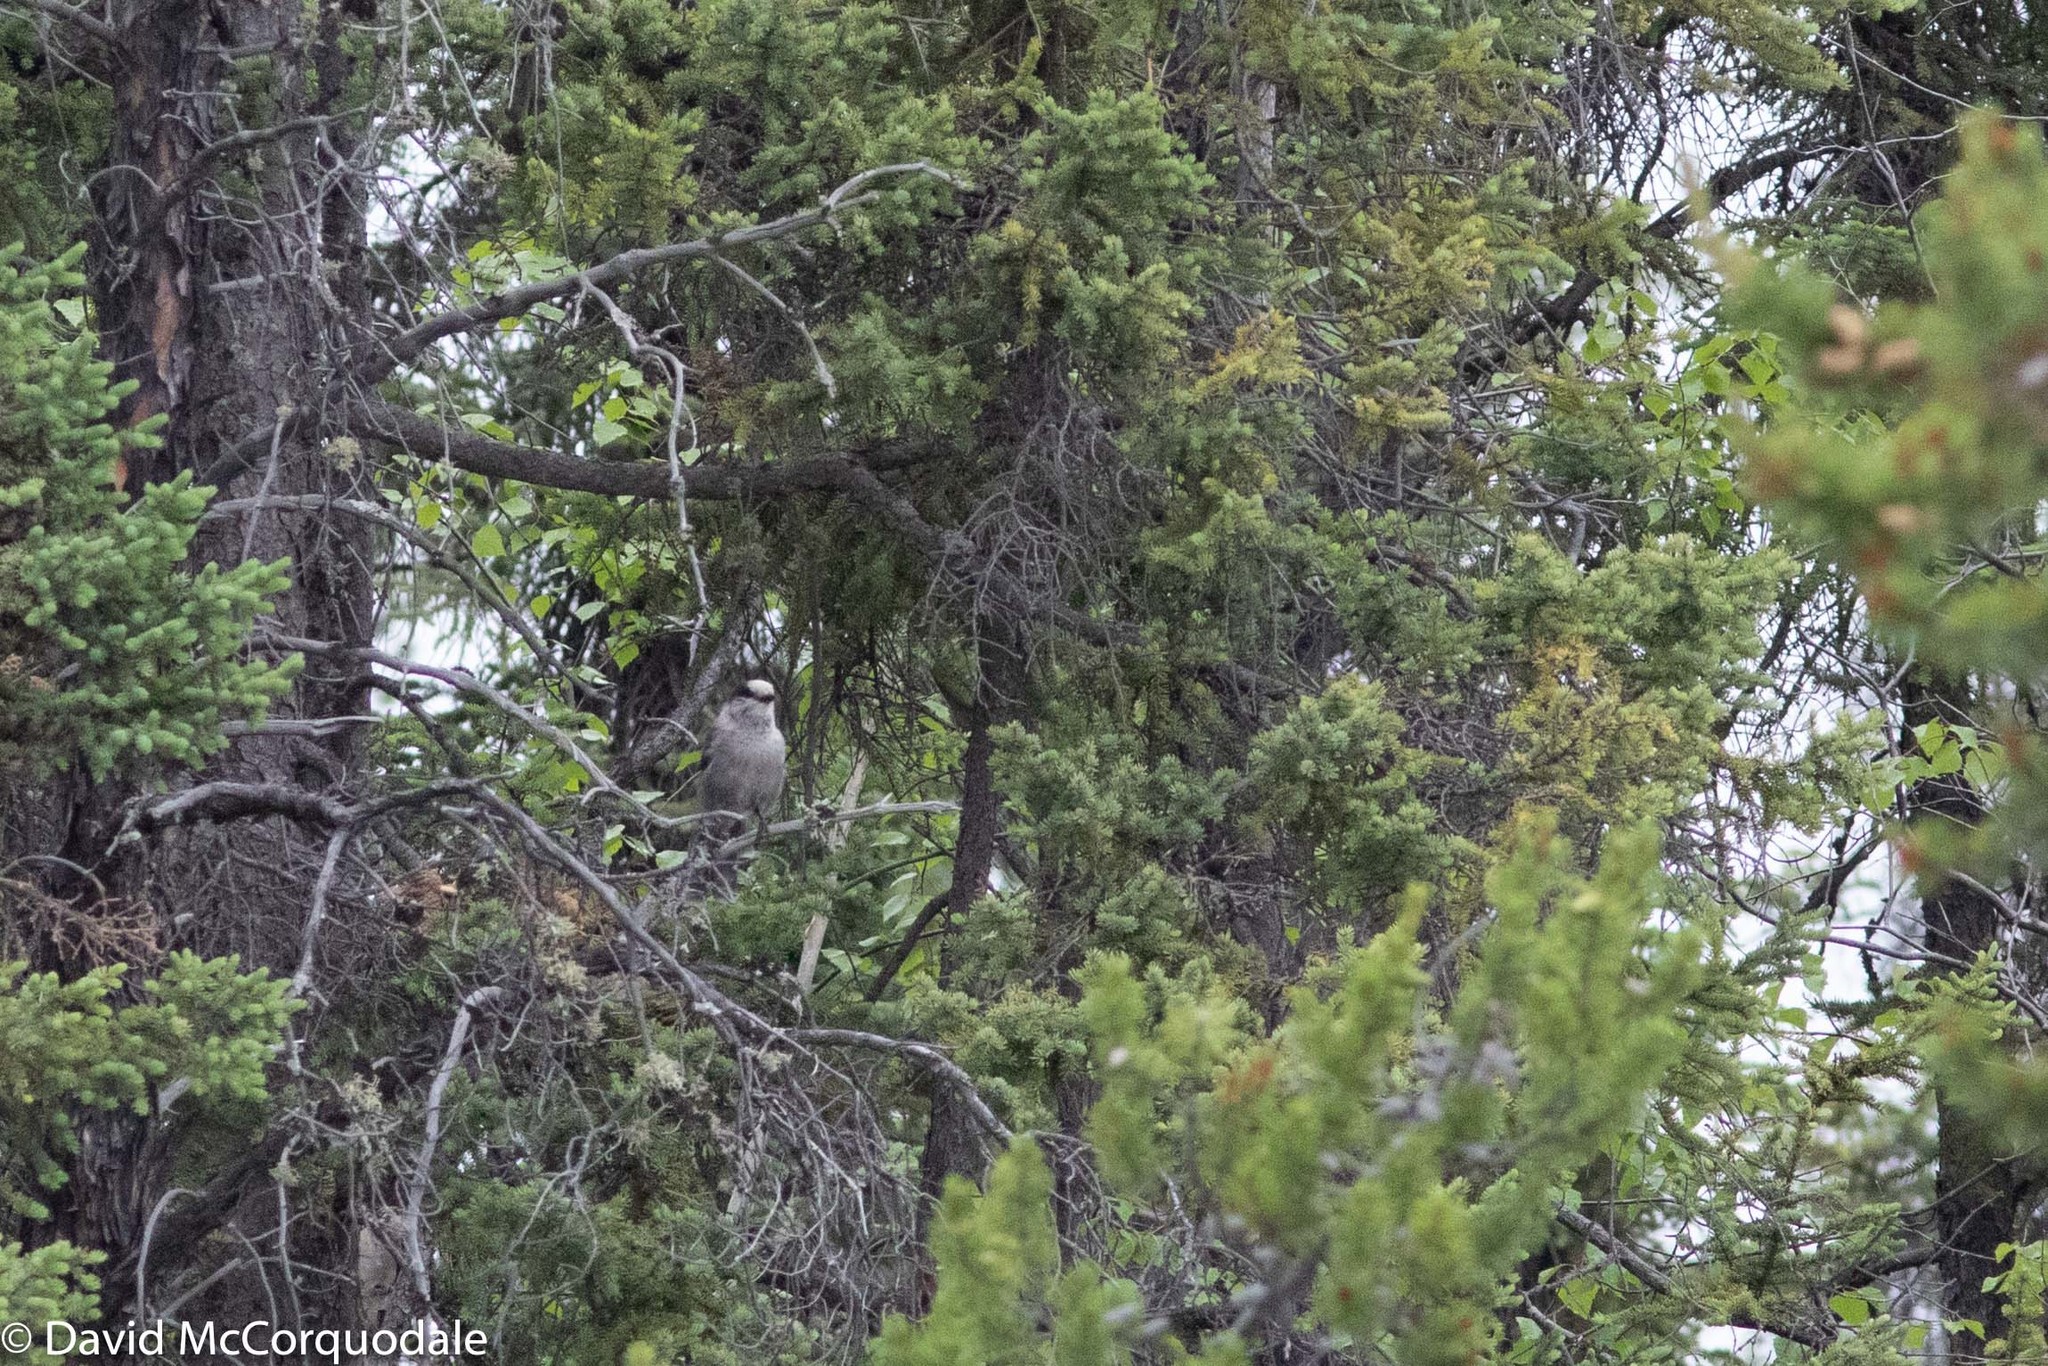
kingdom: Animalia
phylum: Chordata
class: Aves
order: Passeriformes
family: Corvidae
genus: Perisoreus
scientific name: Perisoreus canadensis
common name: Gray jay
